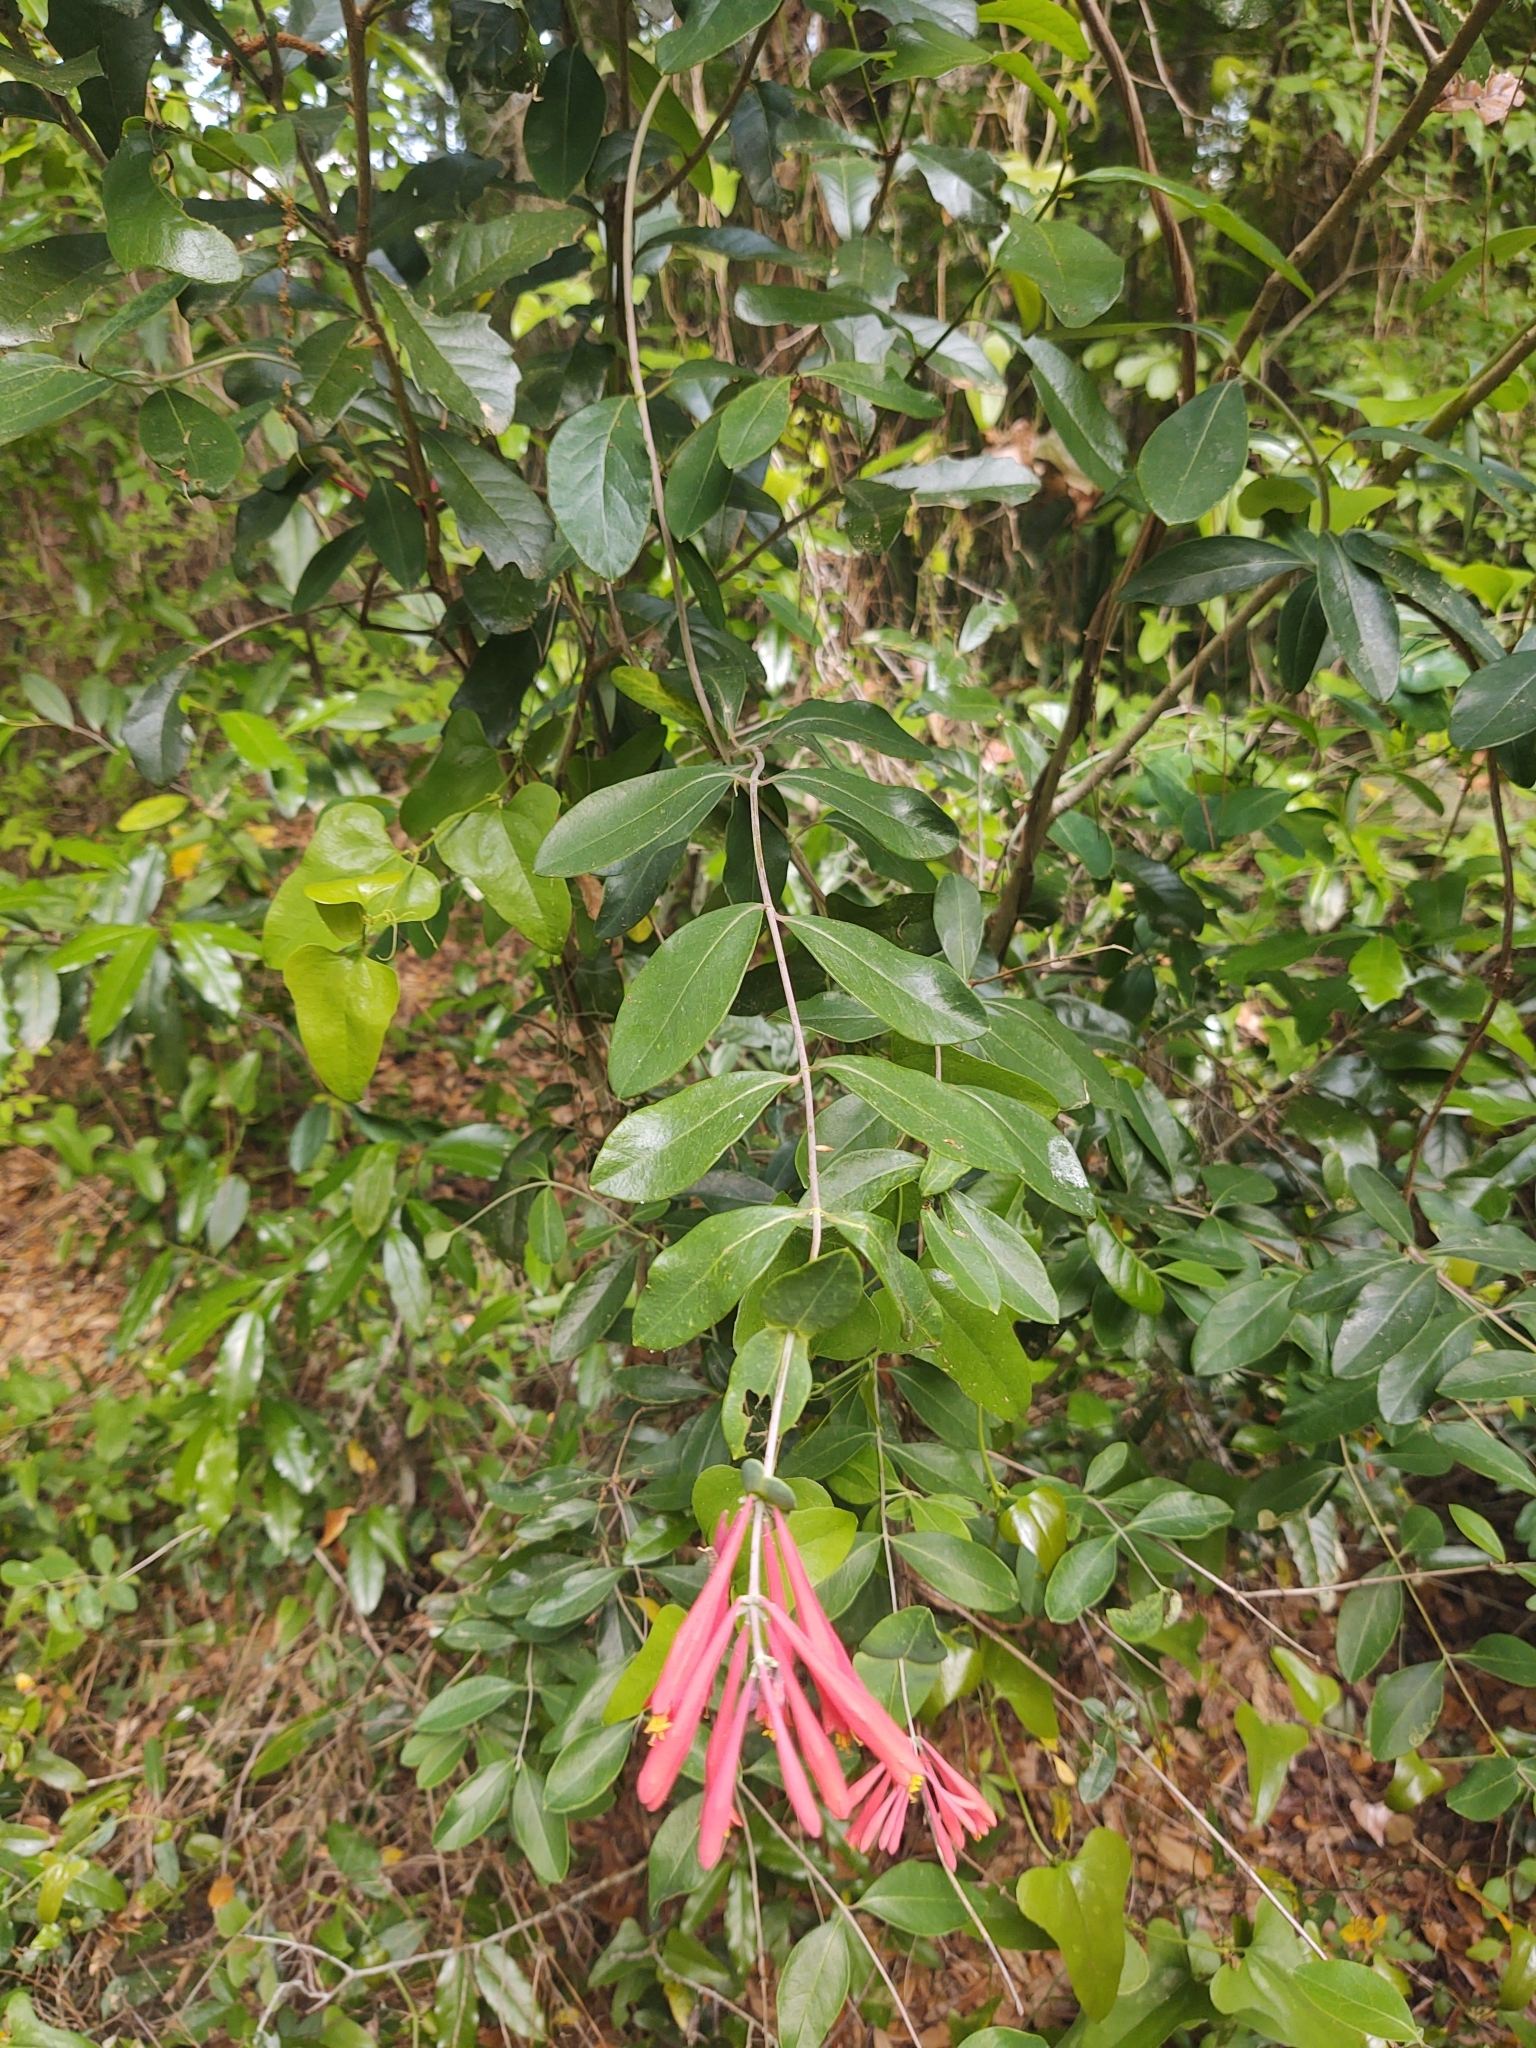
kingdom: Plantae
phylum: Tracheophyta
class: Magnoliopsida
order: Dipsacales
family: Caprifoliaceae
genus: Lonicera
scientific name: Lonicera sempervirens
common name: Coral honeysuckle
